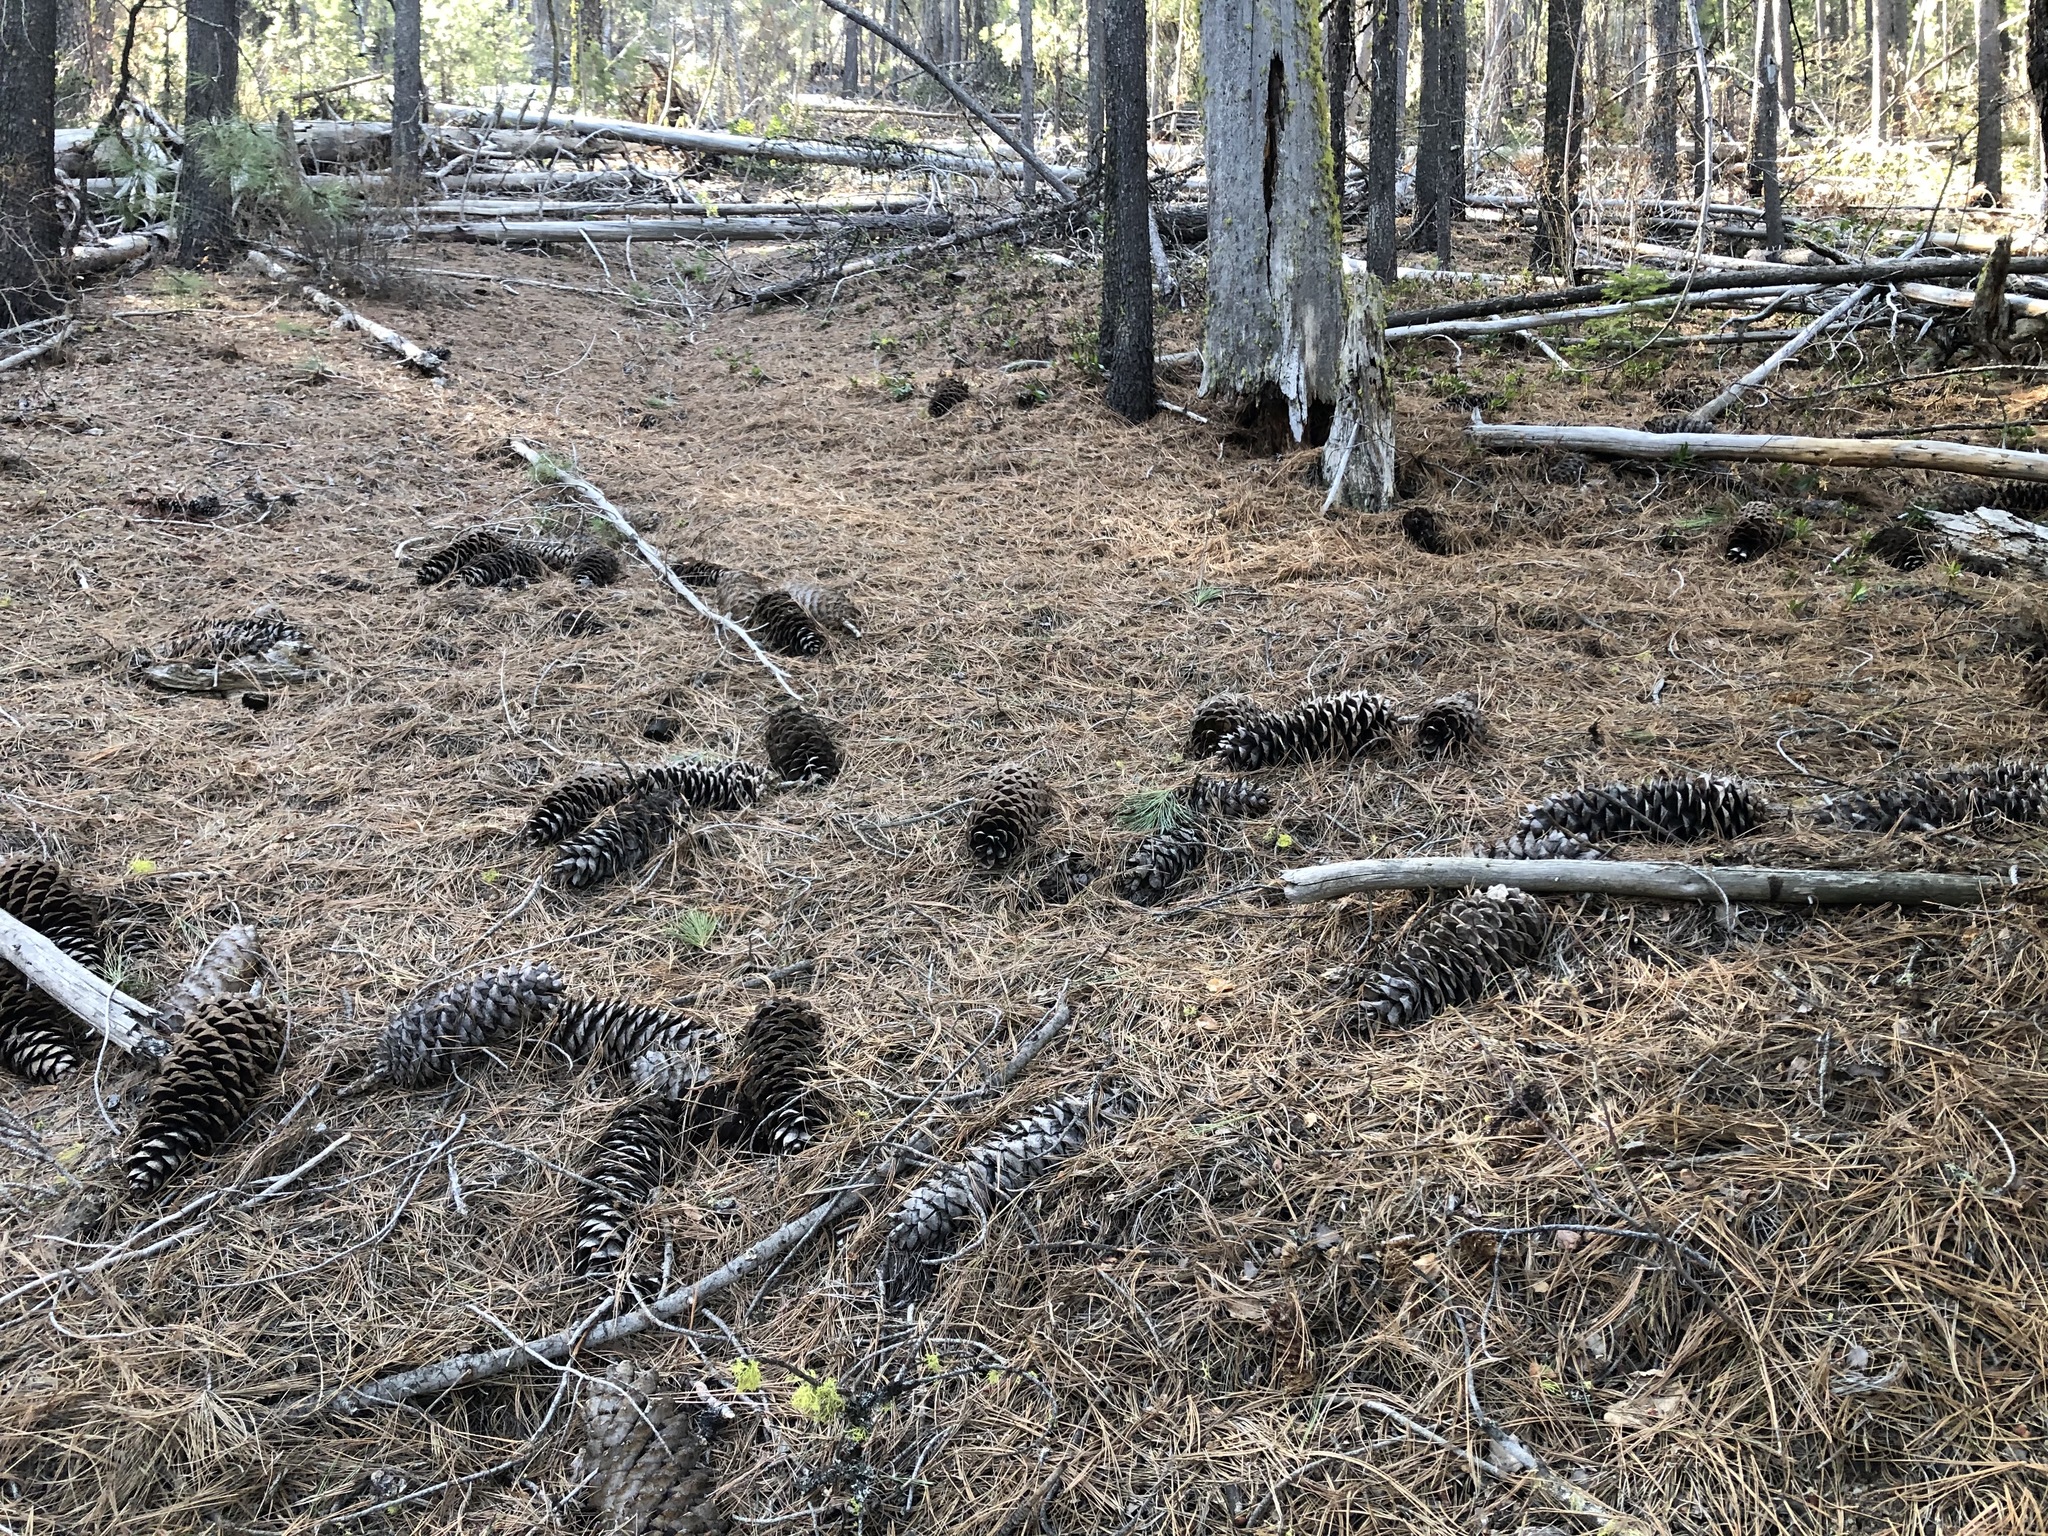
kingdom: Plantae
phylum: Tracheophyta
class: Pinopsida
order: Pinales
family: Pinaceae
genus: Pinus
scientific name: Pinus lambertiana
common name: Sugar pine
